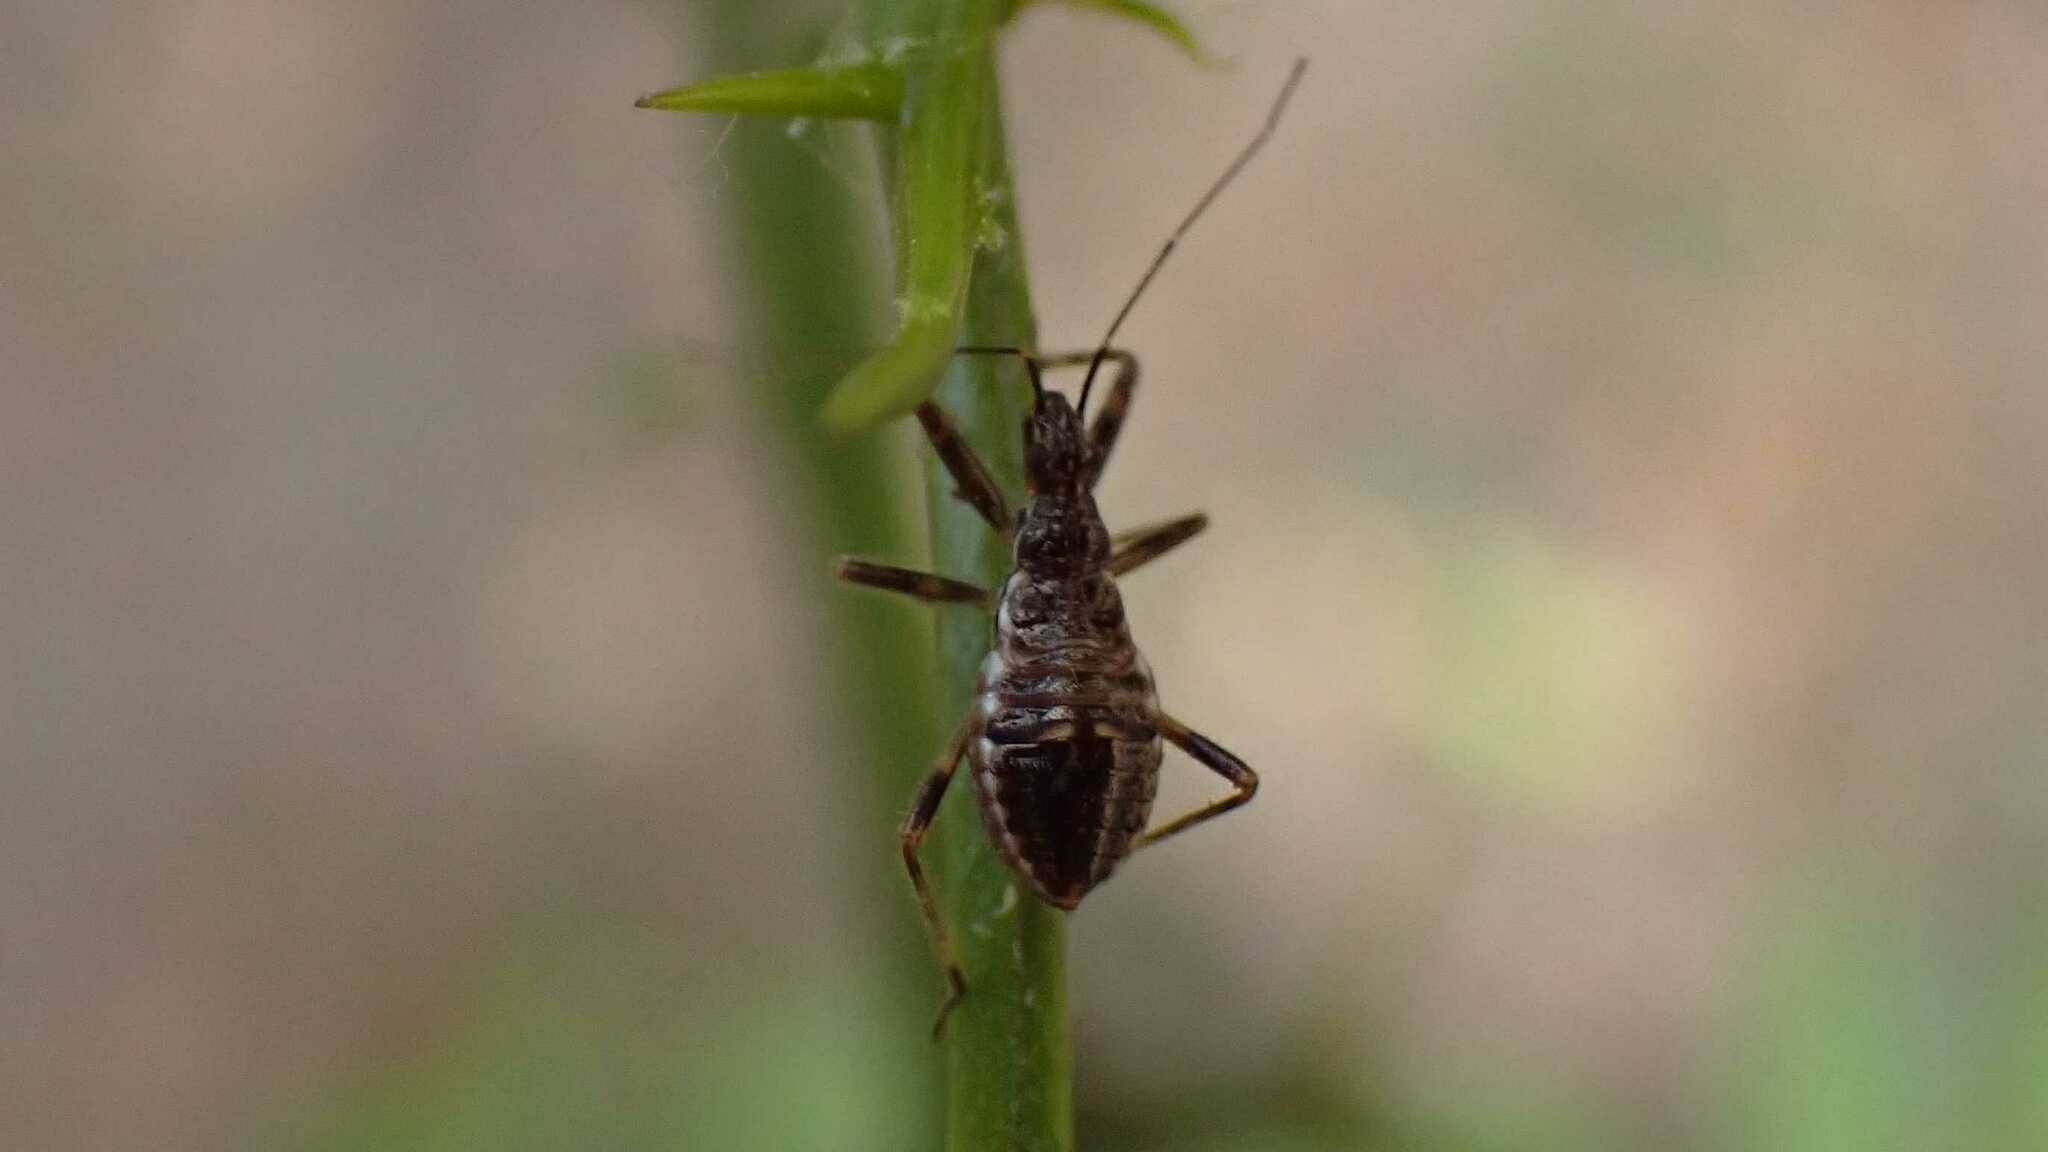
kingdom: Animalia
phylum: Arthropoda
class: Insecta
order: Hemiptera
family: Nabidae
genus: Himacerus
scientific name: Himacerus apterus
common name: Tree damsel bug
